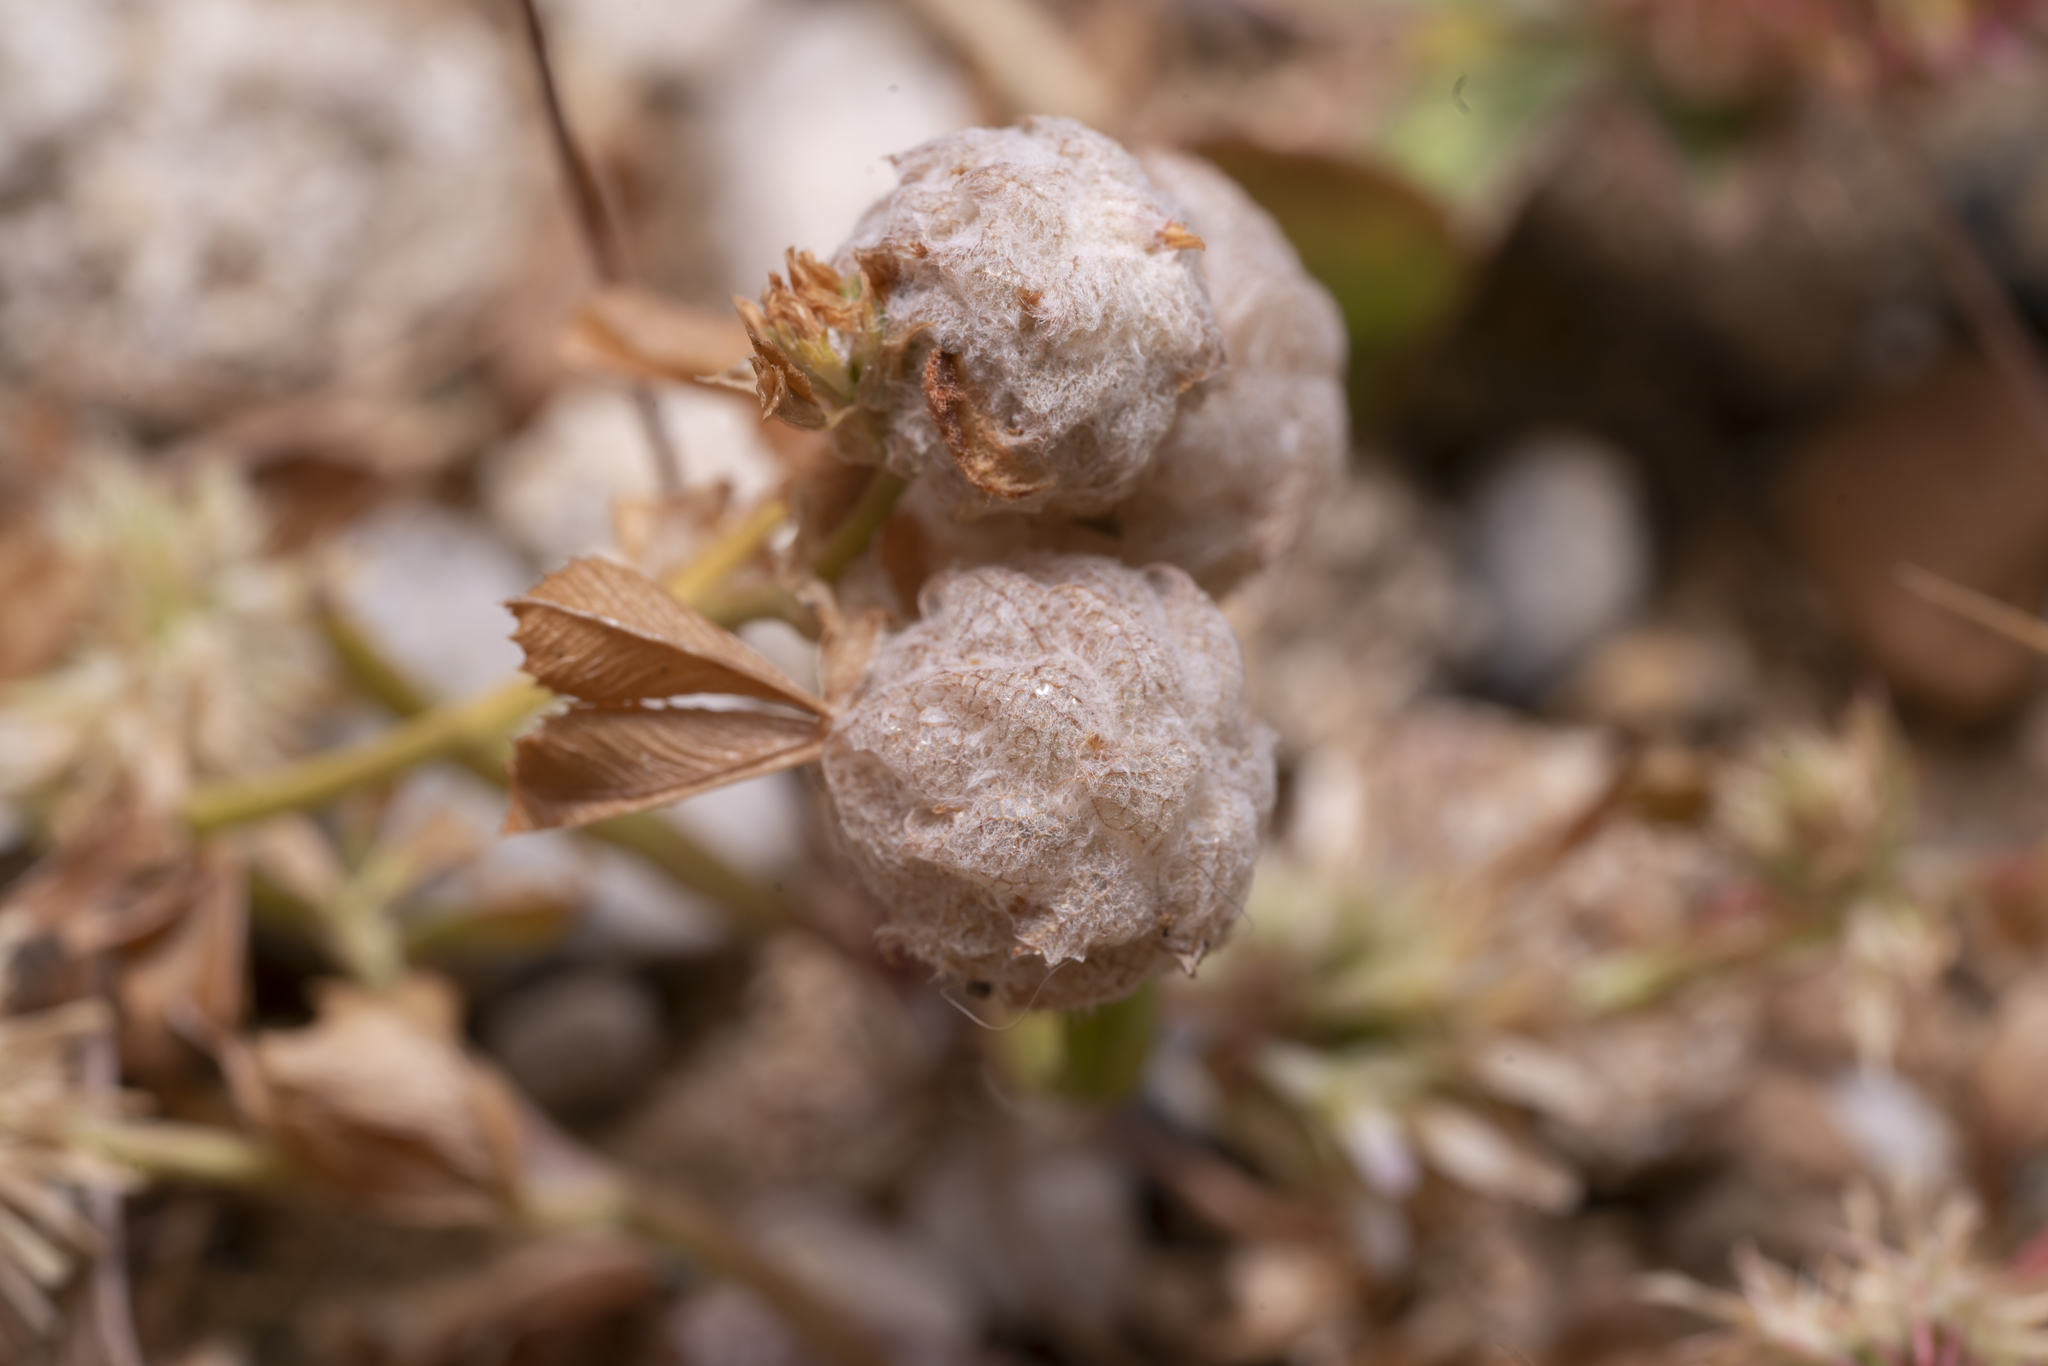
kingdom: Plantae
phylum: Tracheophyta
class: Magnoliopsida
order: Fabales
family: Fabaceae
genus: Trifolium
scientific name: Trifolium tomentosum
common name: Woolly clover
